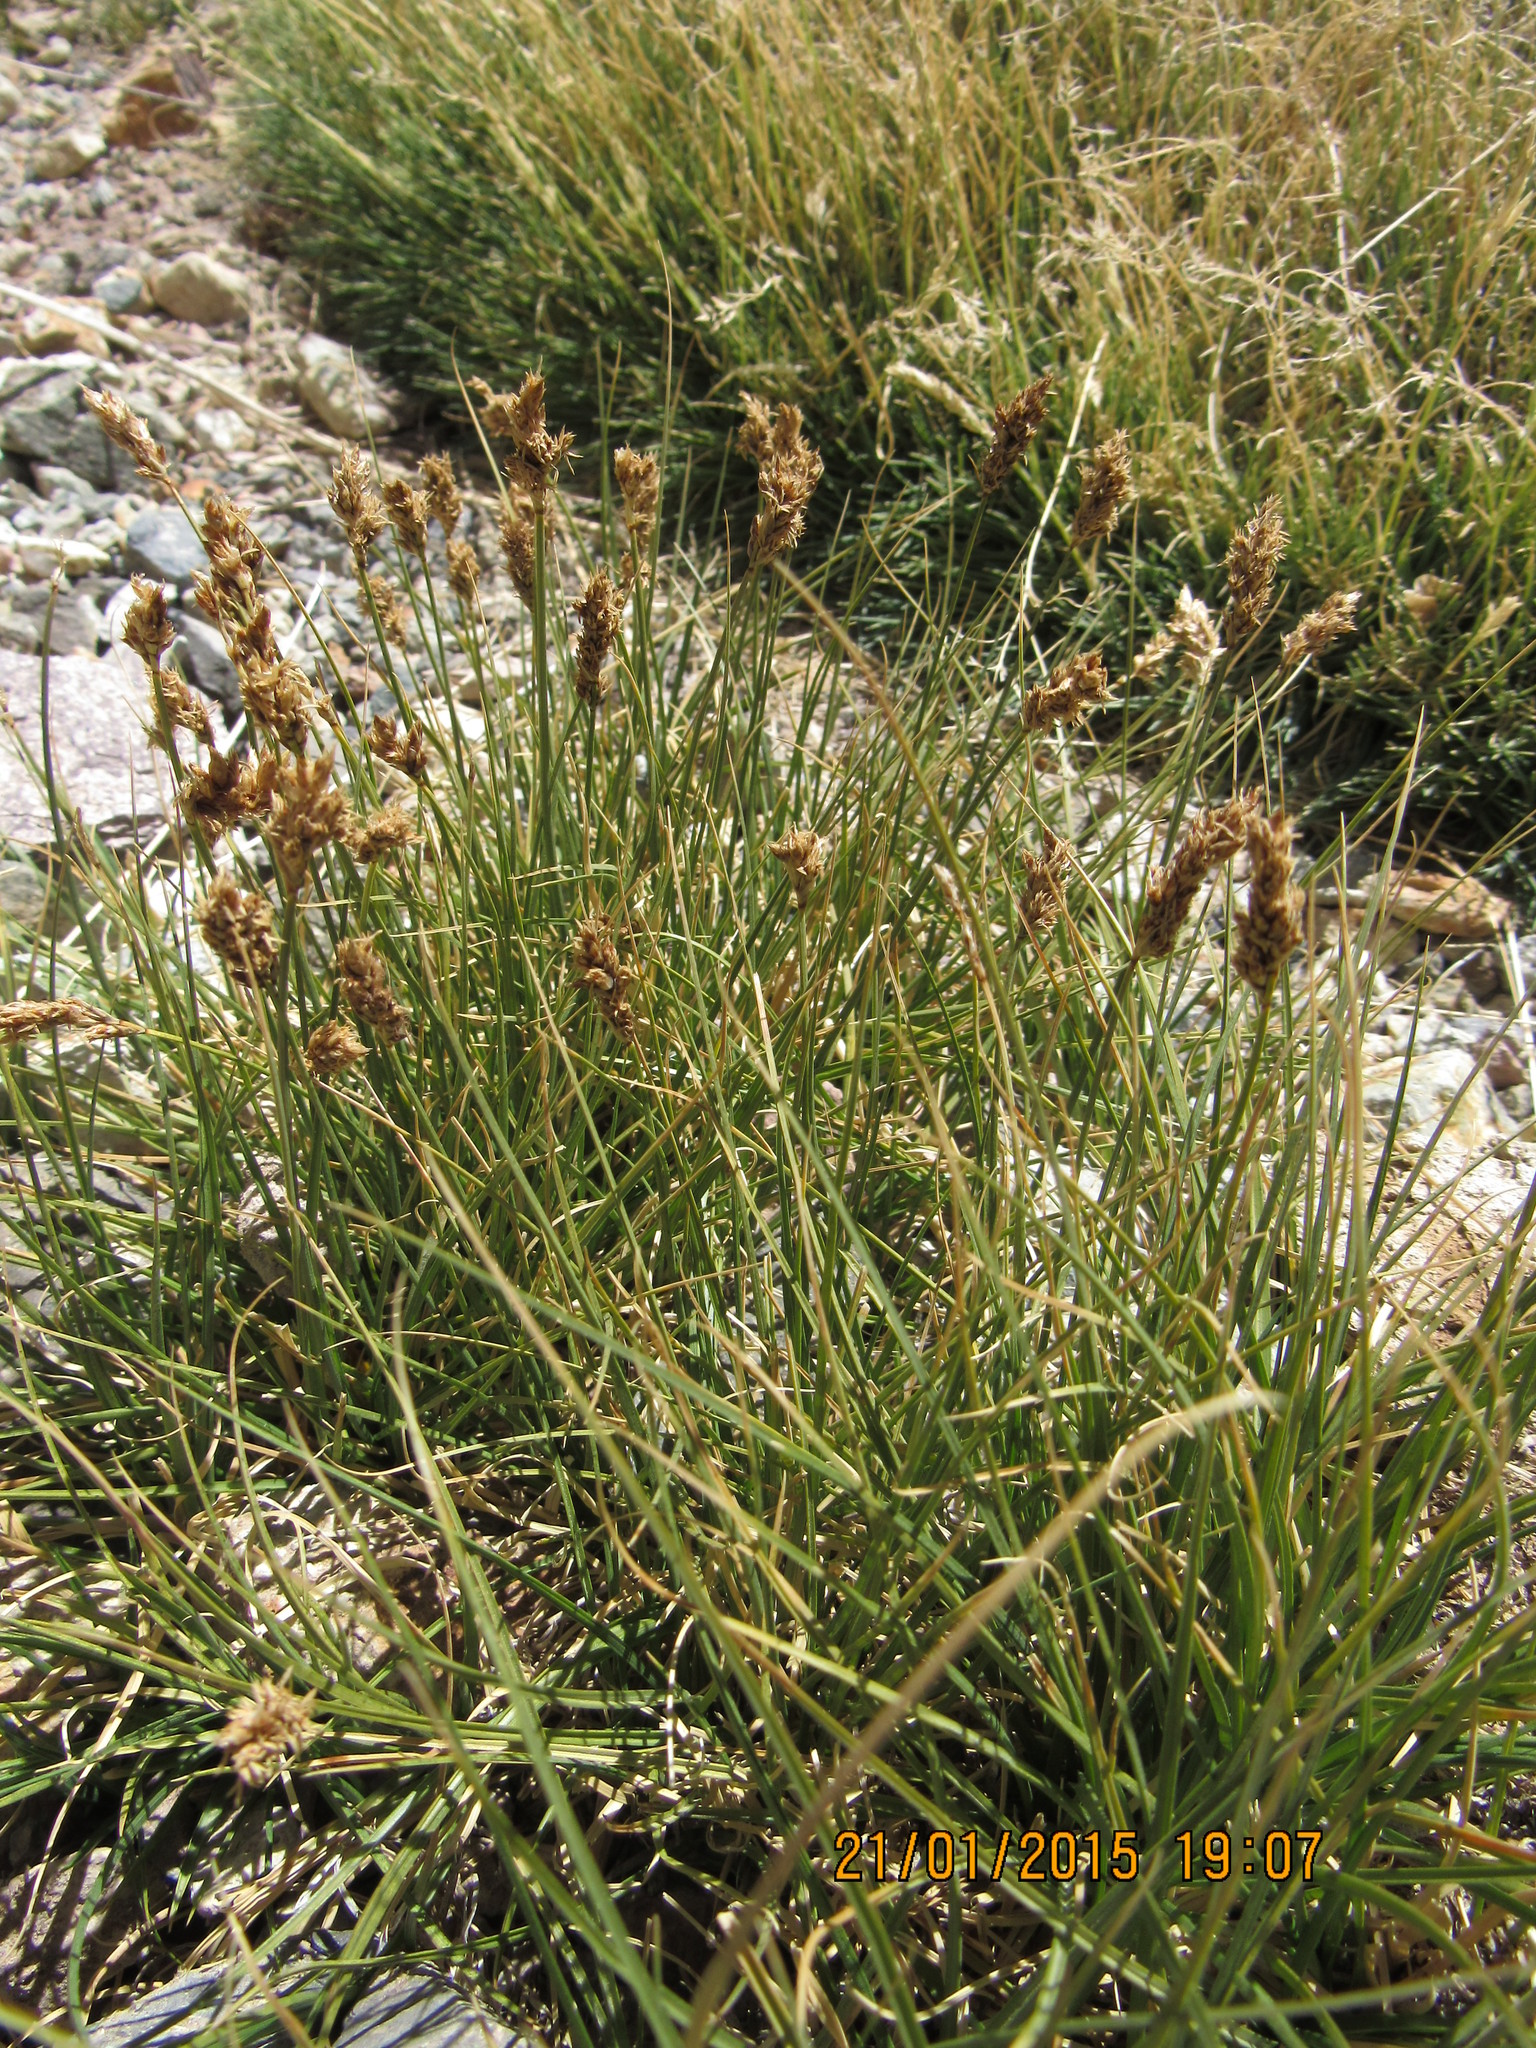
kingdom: Plantae
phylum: Tracheophyta
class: Liliopsida
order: Poales
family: Cyperaceae
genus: Carex
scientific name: Carex gayana
